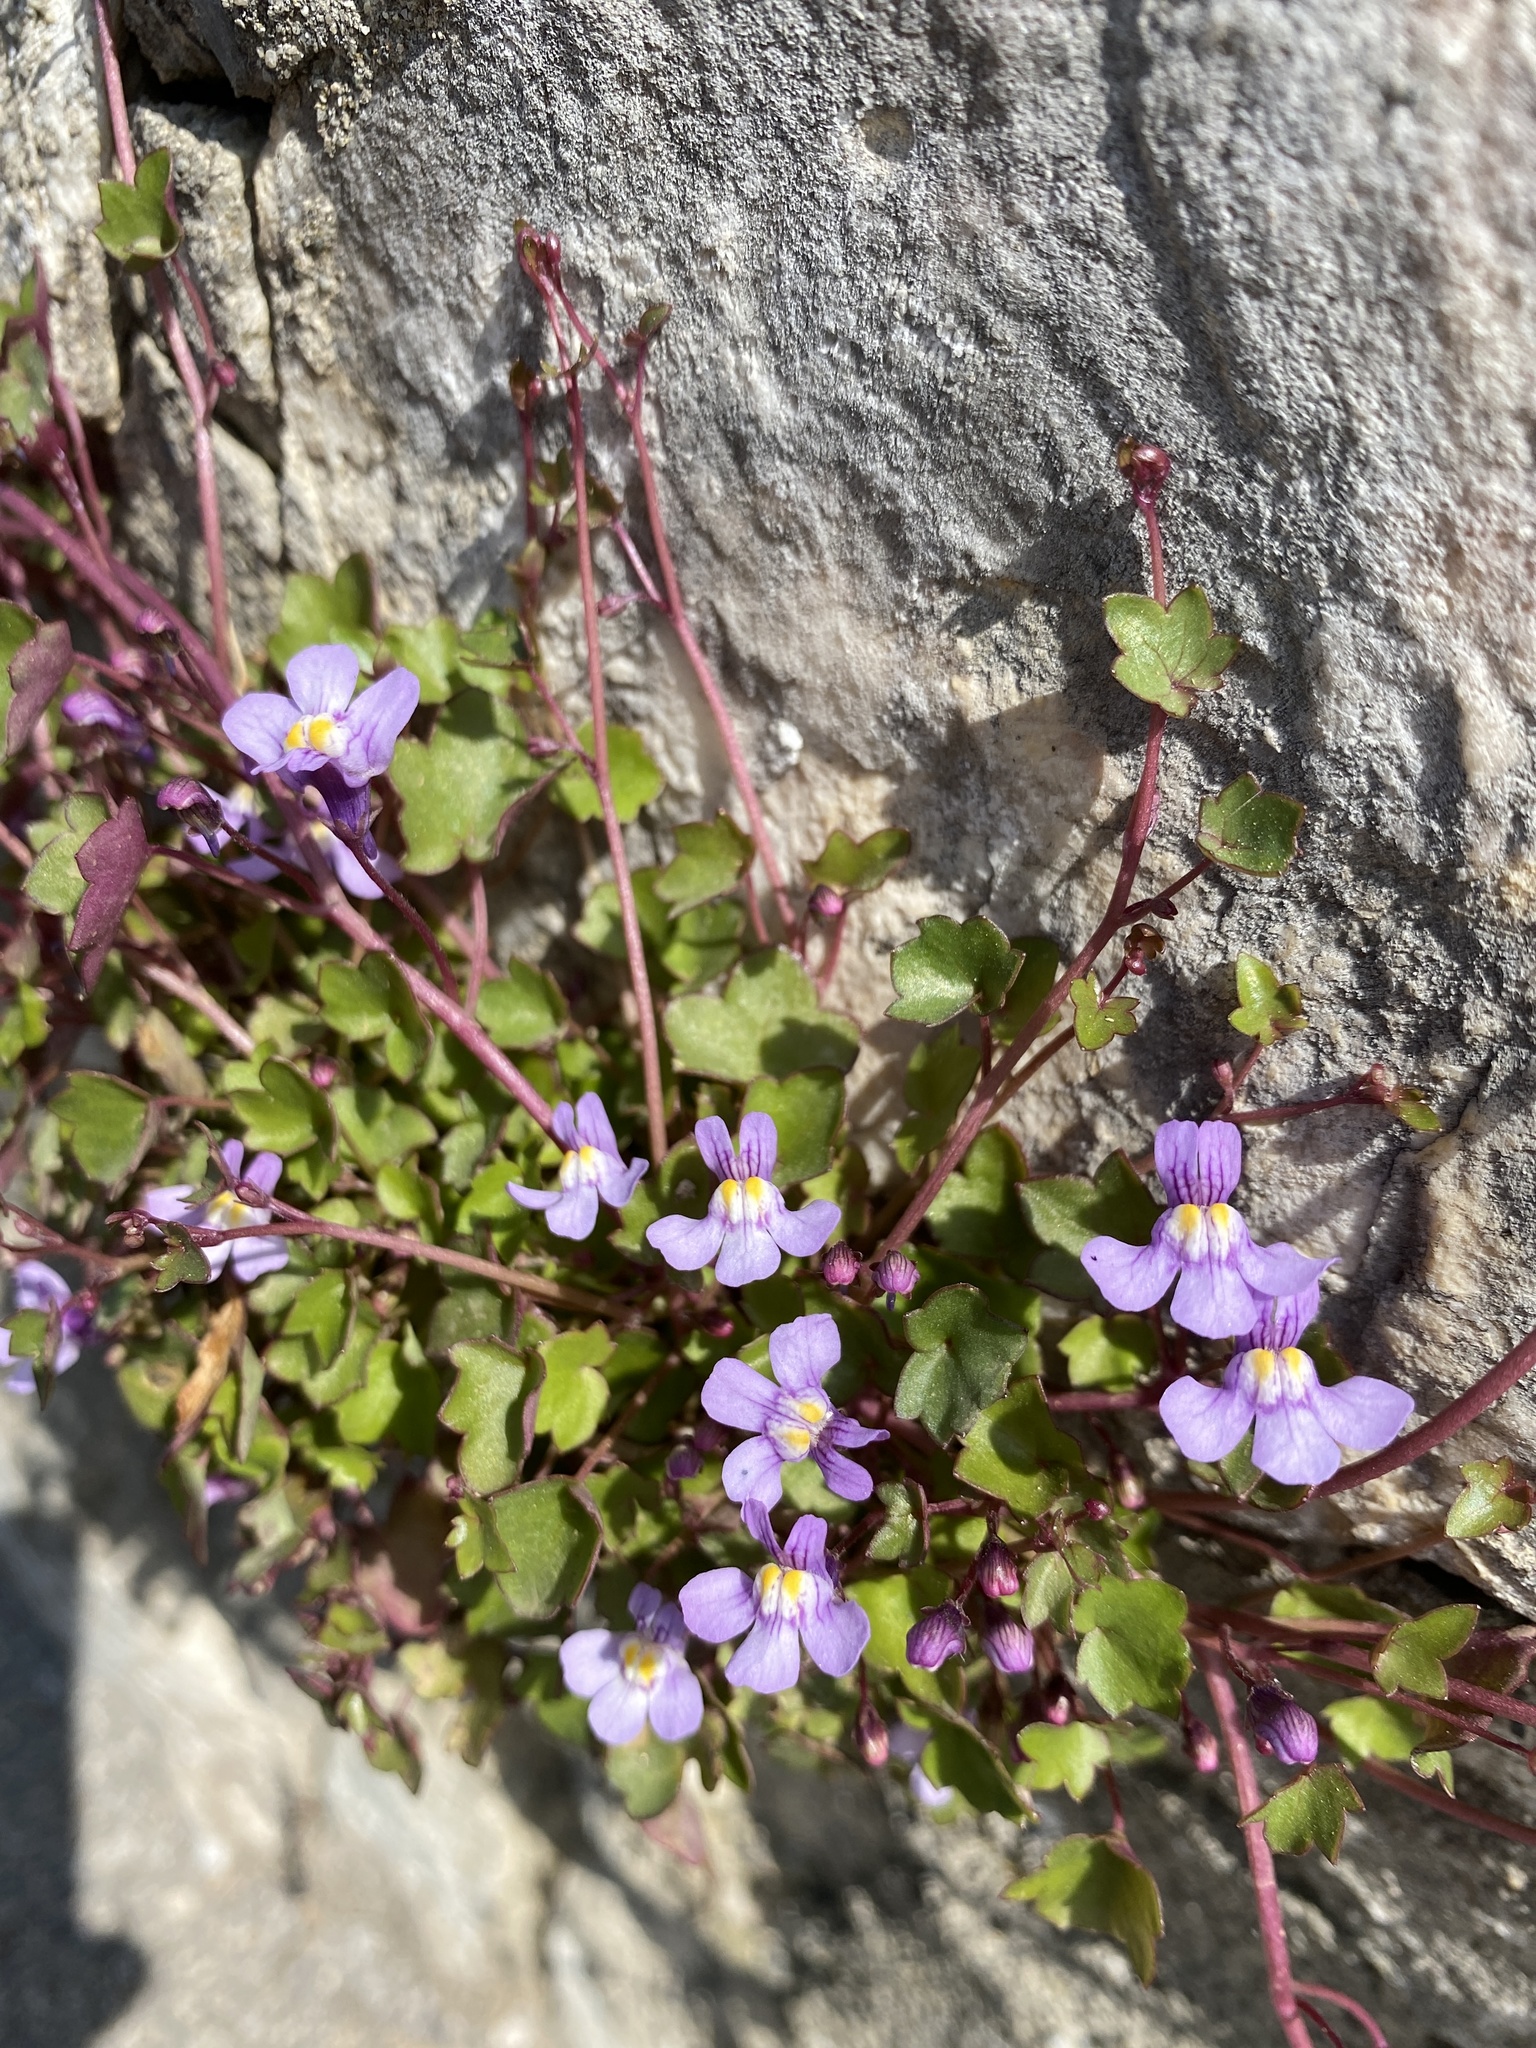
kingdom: Plantae
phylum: Tracheophyta
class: Magnoliopsida
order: Lamiales
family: Plantaginaceae
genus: Cymbalaria
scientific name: Cymbalaria muralis
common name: Ivy-leaved toadflax
